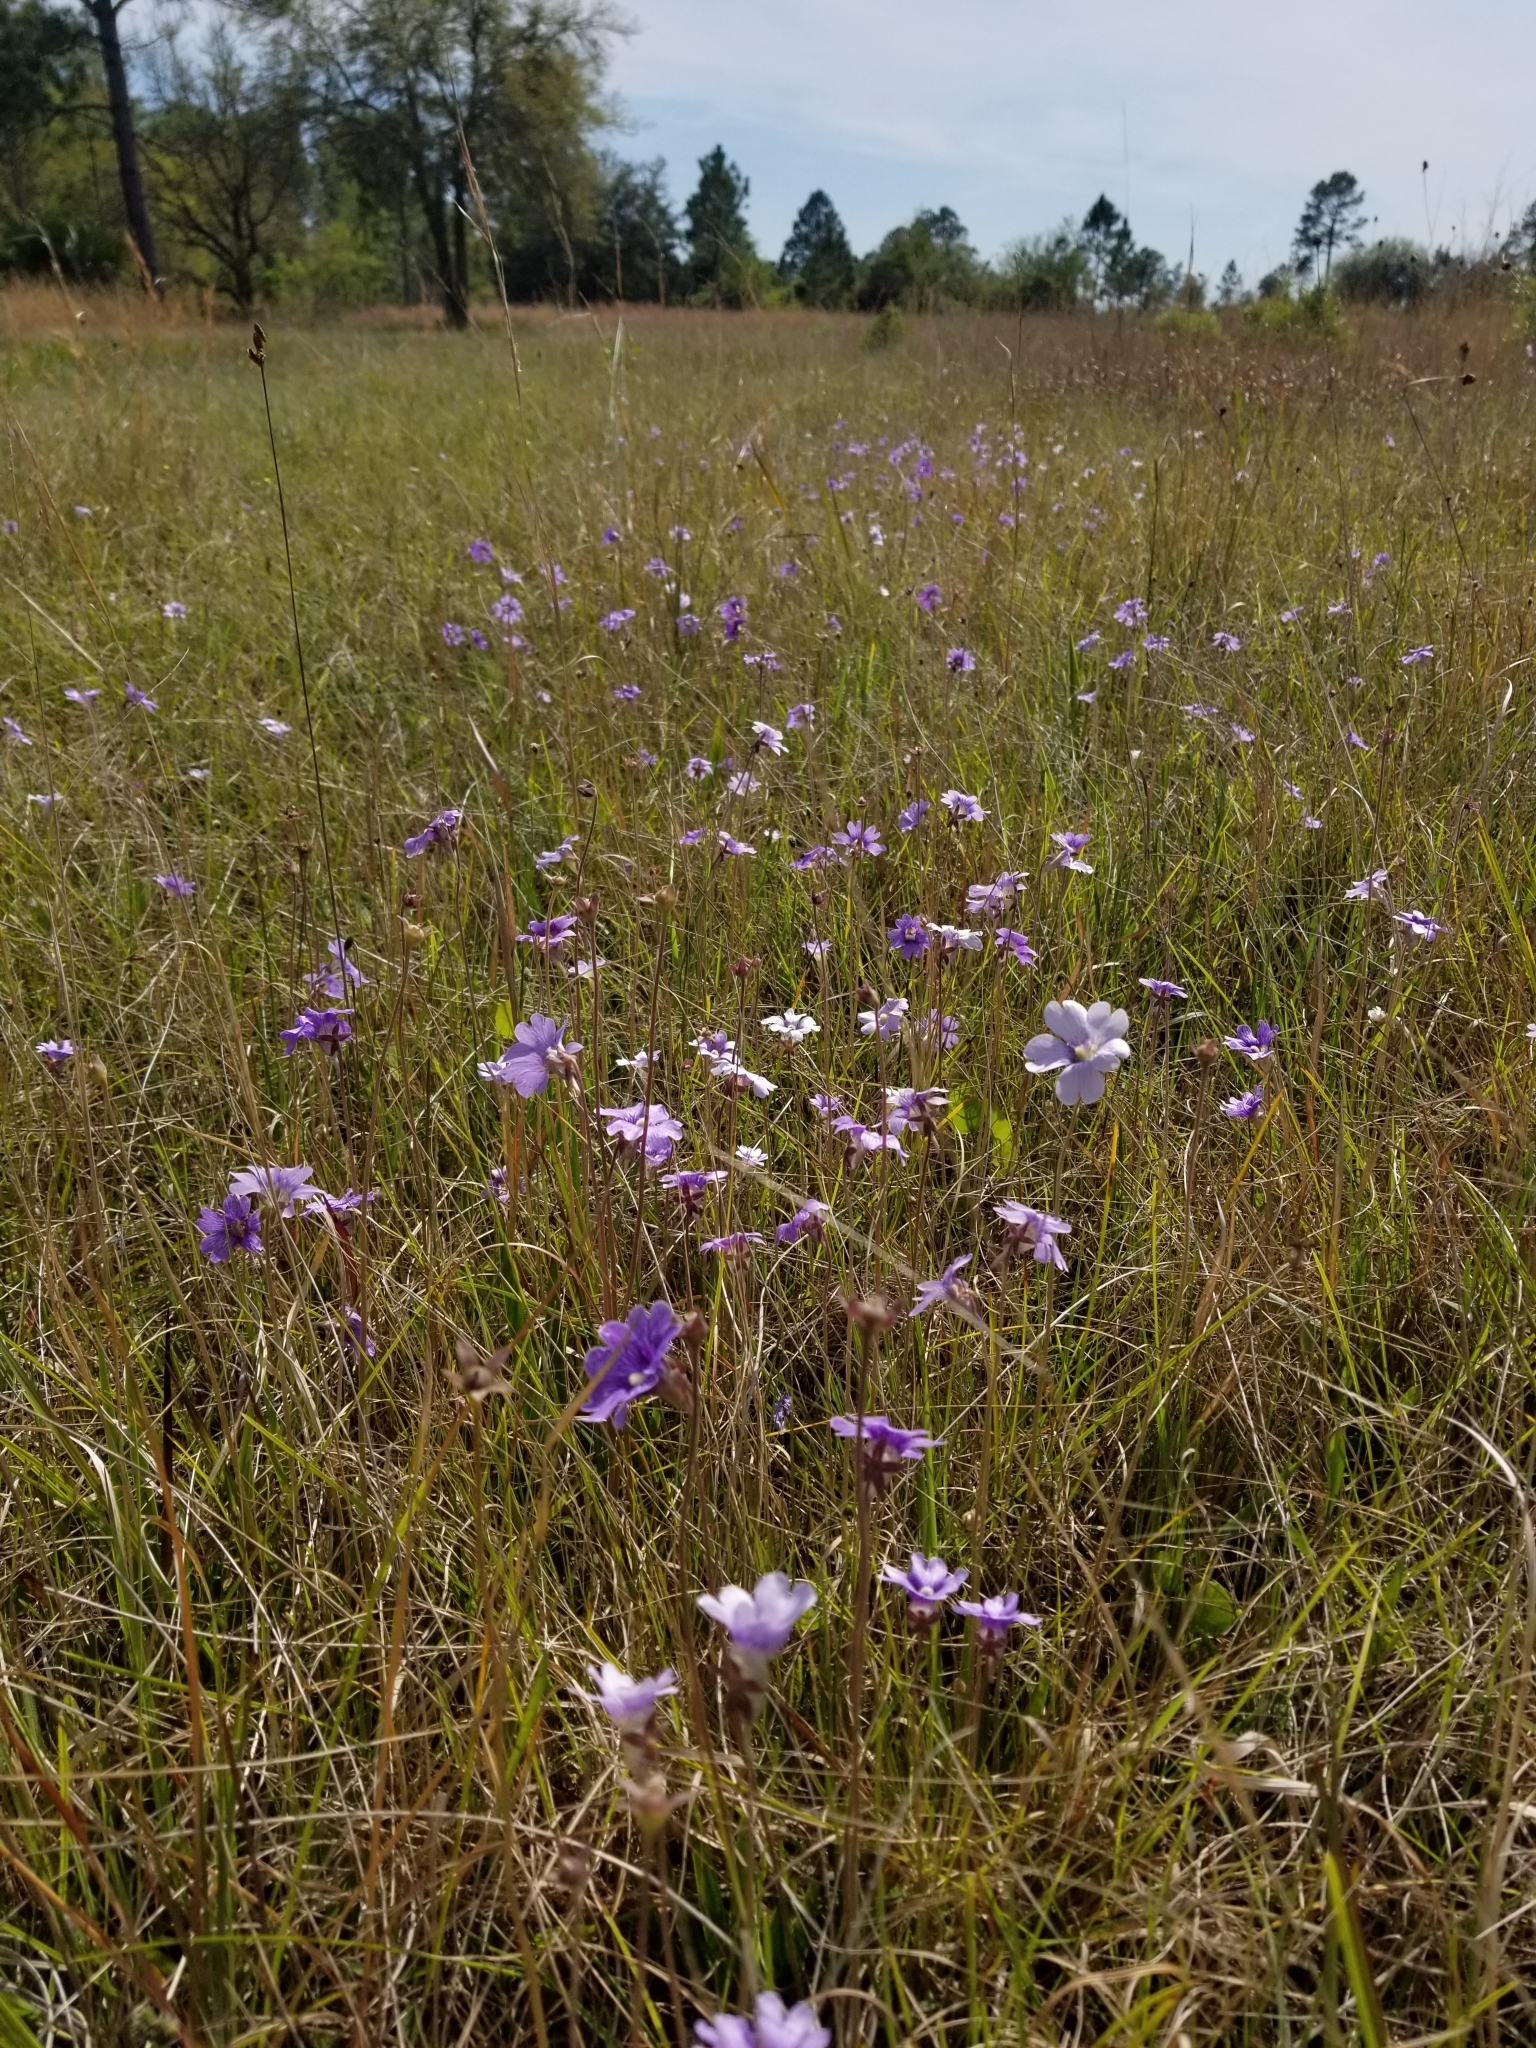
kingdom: Plantae
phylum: Tracheophyta
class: Magnoliopsida
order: Lamiales
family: Lentibulariaceae
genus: Pinguicula
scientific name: Pinguicula caerulea
